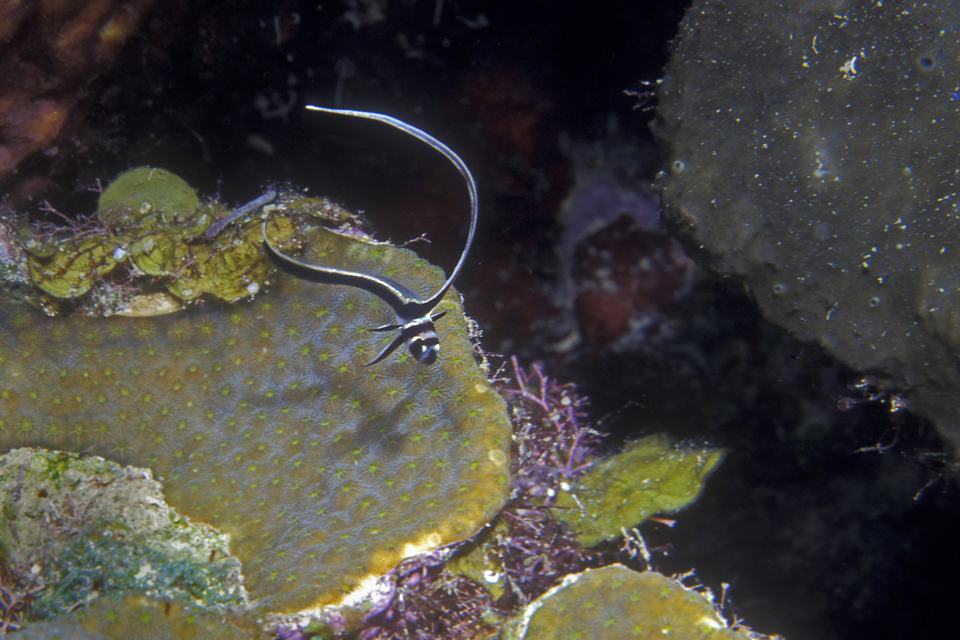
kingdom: Animalia
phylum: Chordata
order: Perciformes
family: Sciaenidae
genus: Equetus
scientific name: Equetus punctatus
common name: Spotted drum
